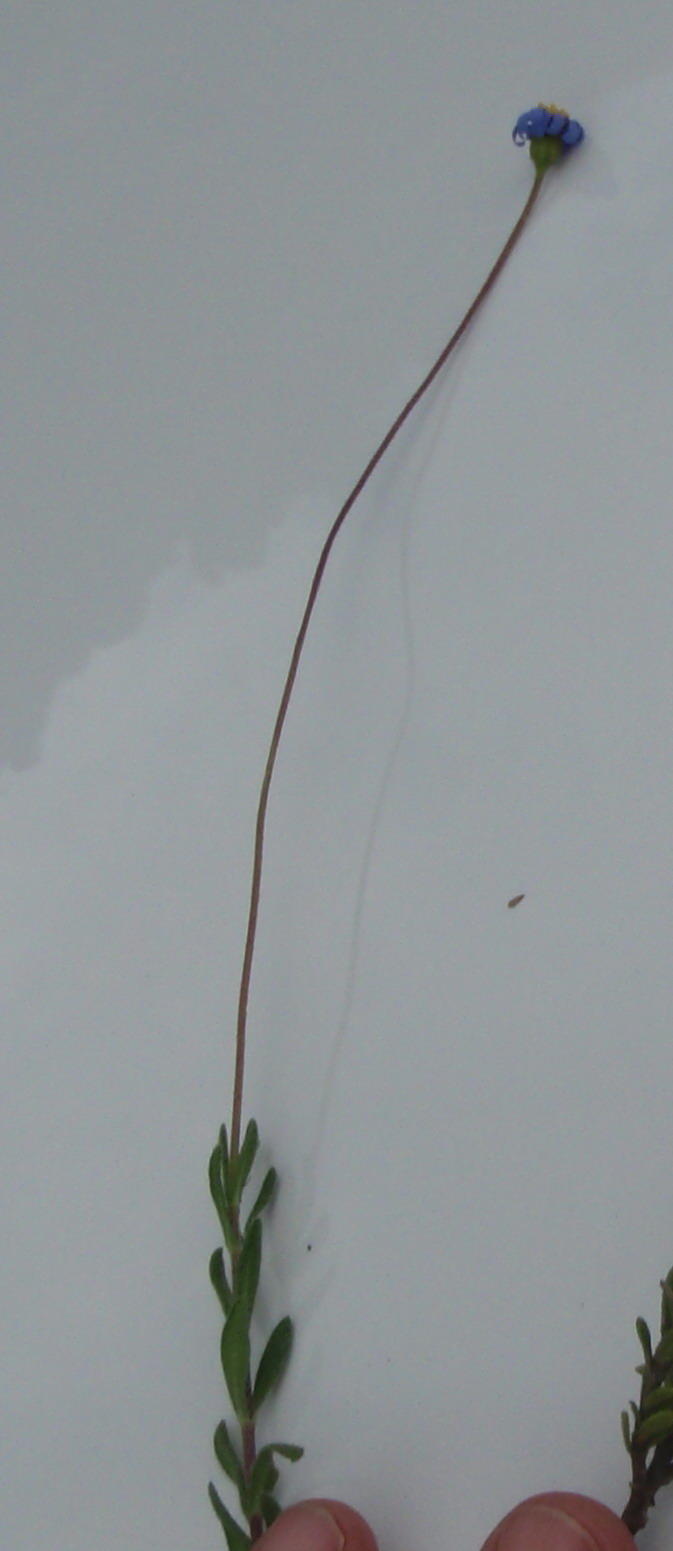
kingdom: Plantae
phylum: Tracheophyta
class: Magnoliopsida
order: Asterales
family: Asteraceae
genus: Felicia
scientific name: Felicia amoena
